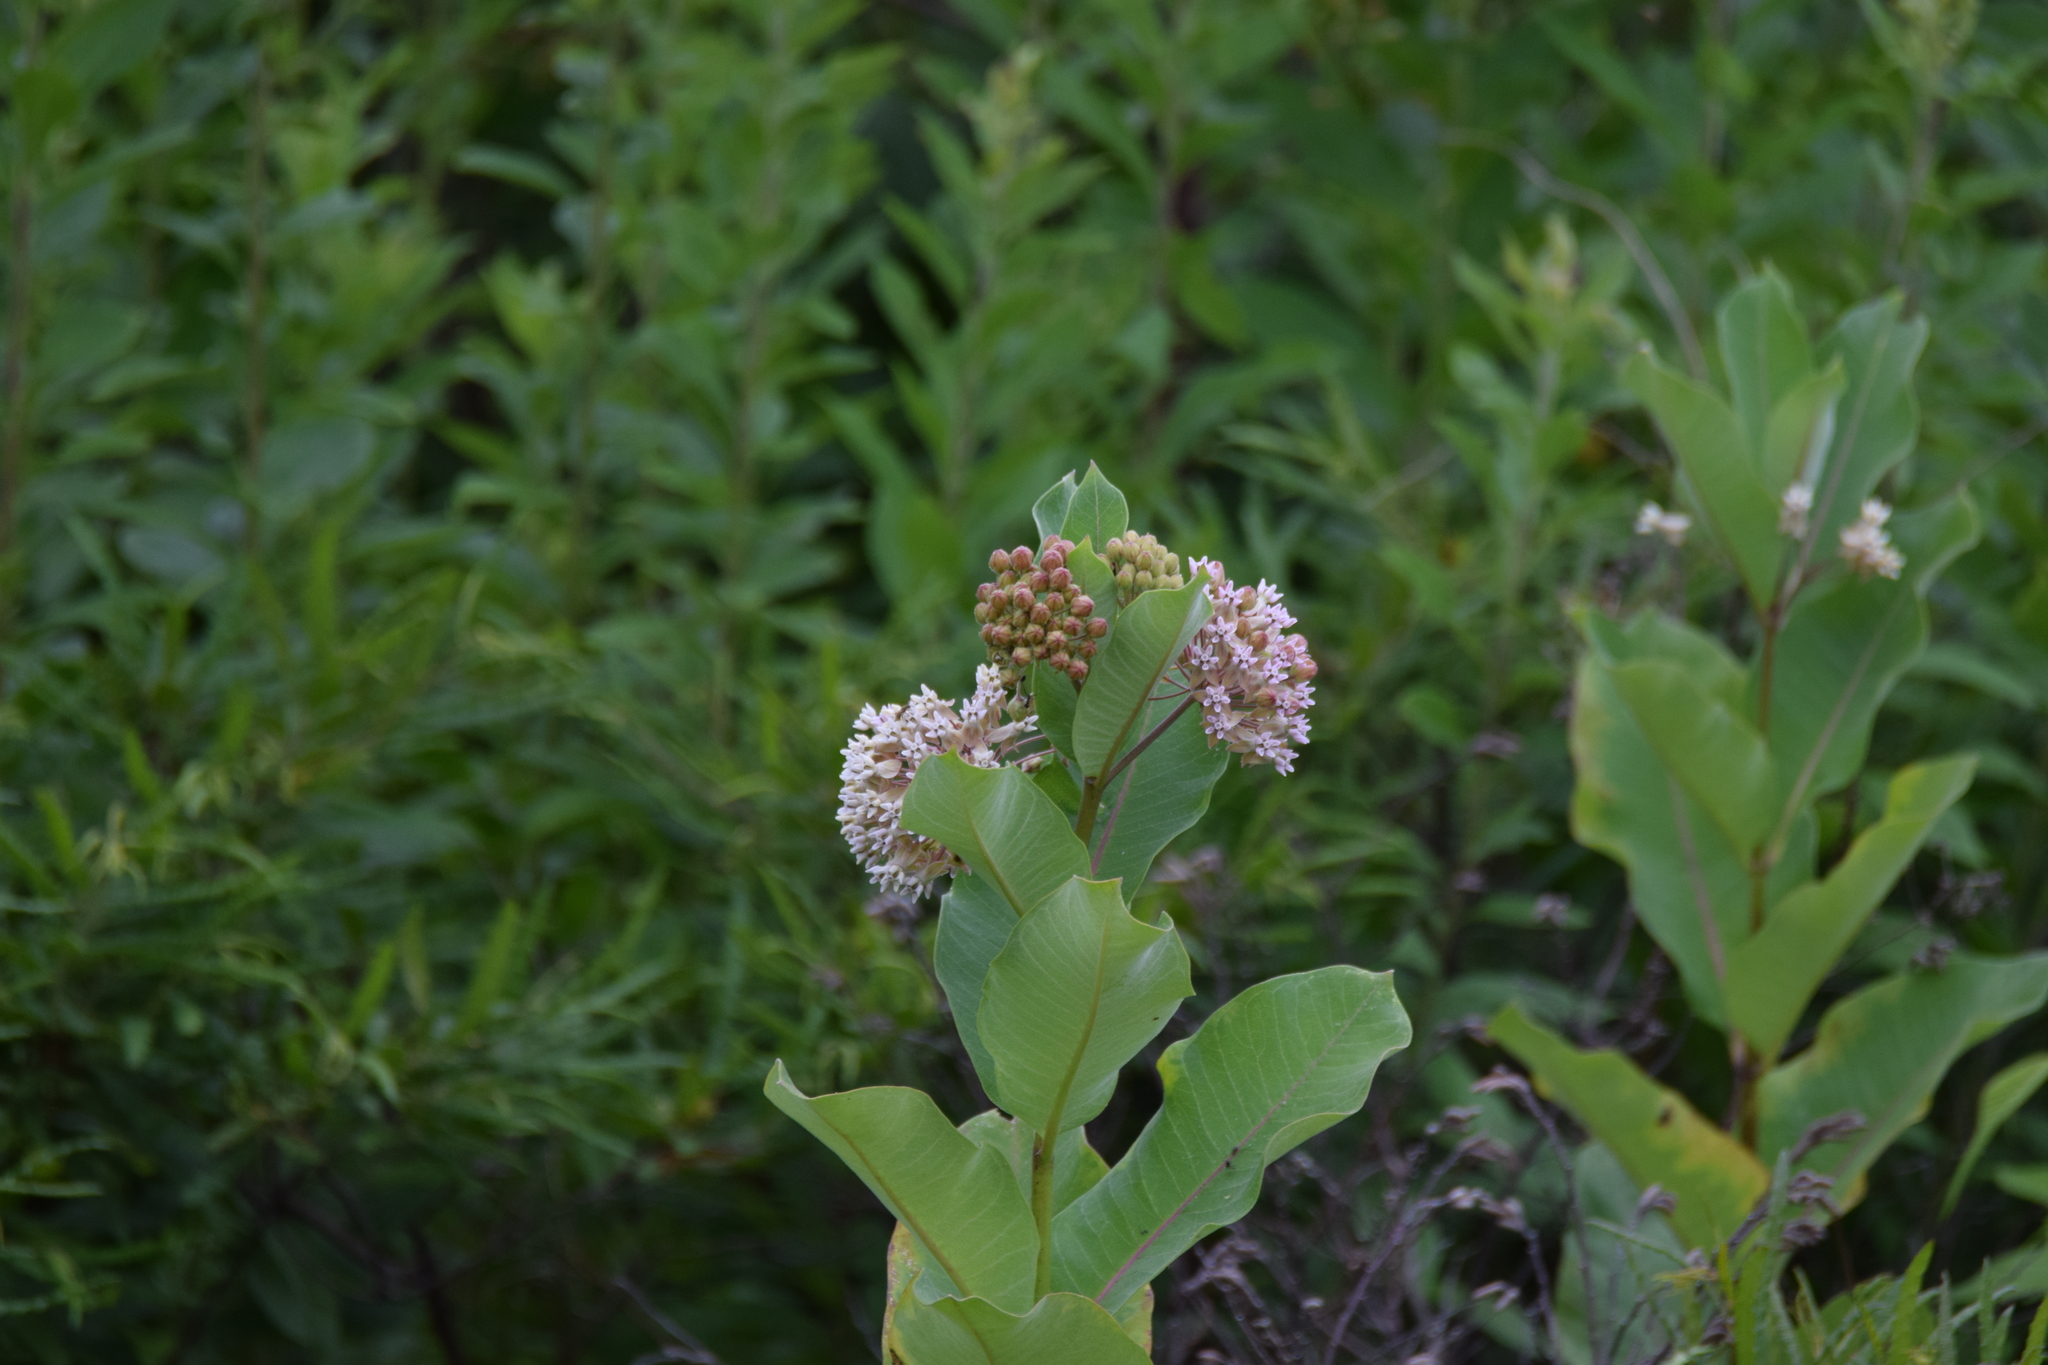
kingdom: Plantae
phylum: Tracheophyta
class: Magnoliopsida
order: Gentianales
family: Apocynaceae
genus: Asclepias
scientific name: Asclepias syriaca
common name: Common milkweed
